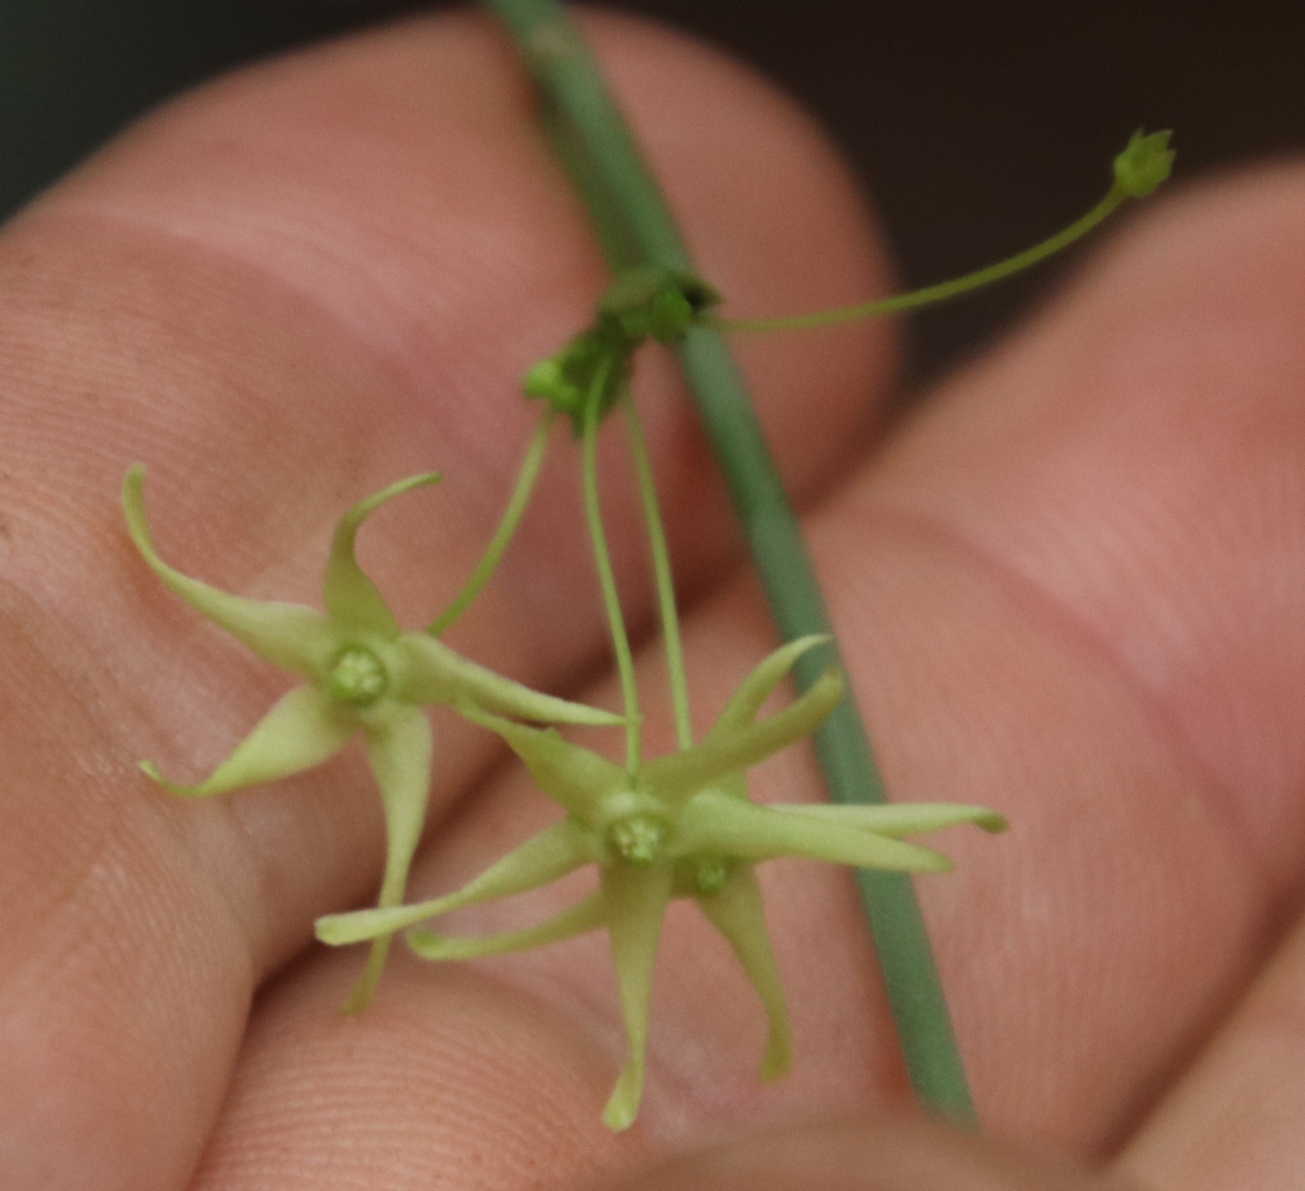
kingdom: Plantae
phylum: Tracheophyta
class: Magnoliopsida
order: Gentianales
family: Apocynaceae
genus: Vincetoxicum
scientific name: Vincetoxicum lycioides
